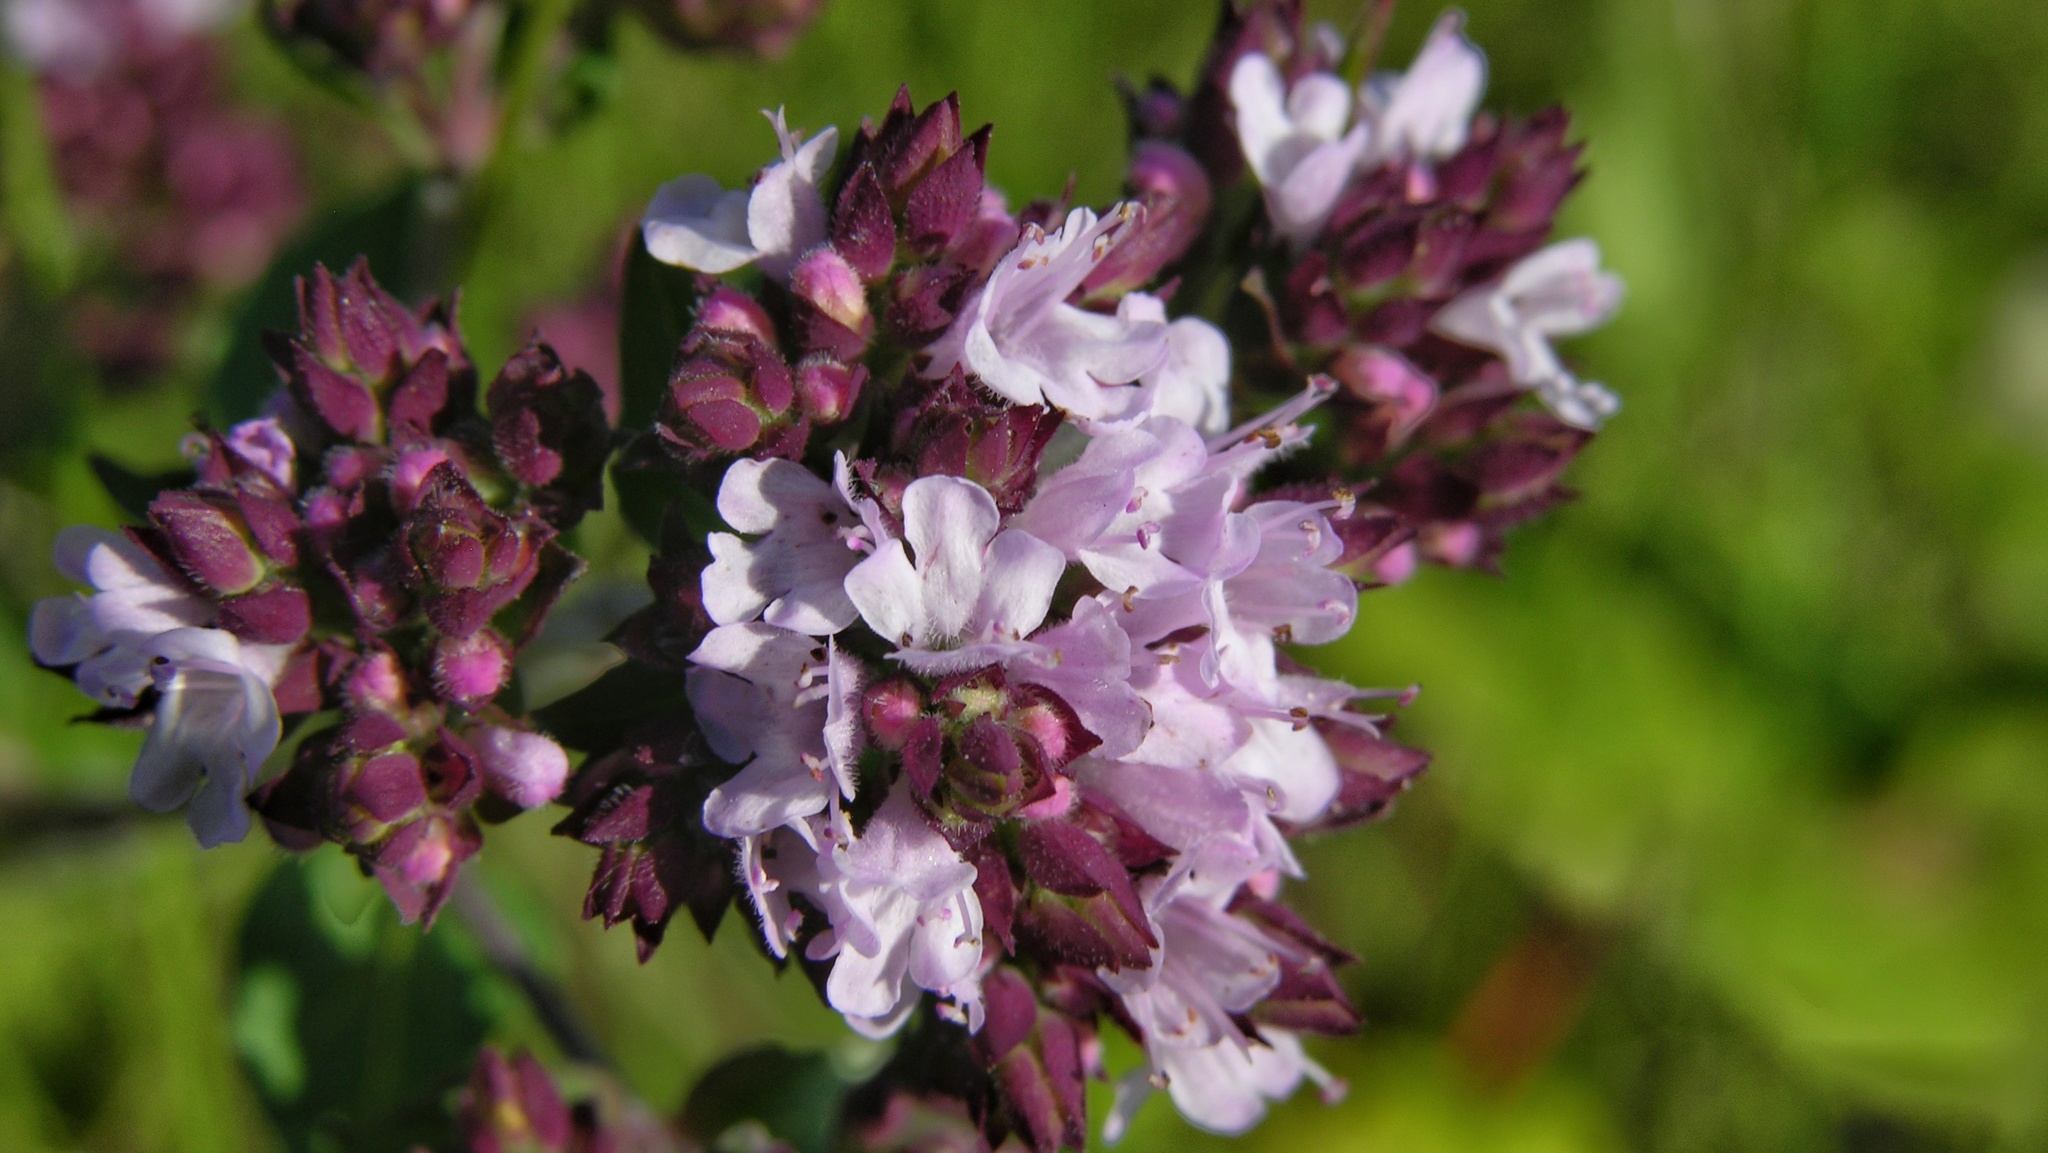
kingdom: Plantae
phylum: Tracheophyta
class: Magnoliopsida
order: Lamiales
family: Lamiaceae
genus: Origanum
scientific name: Origanum vulgare
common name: Wild marjoram
